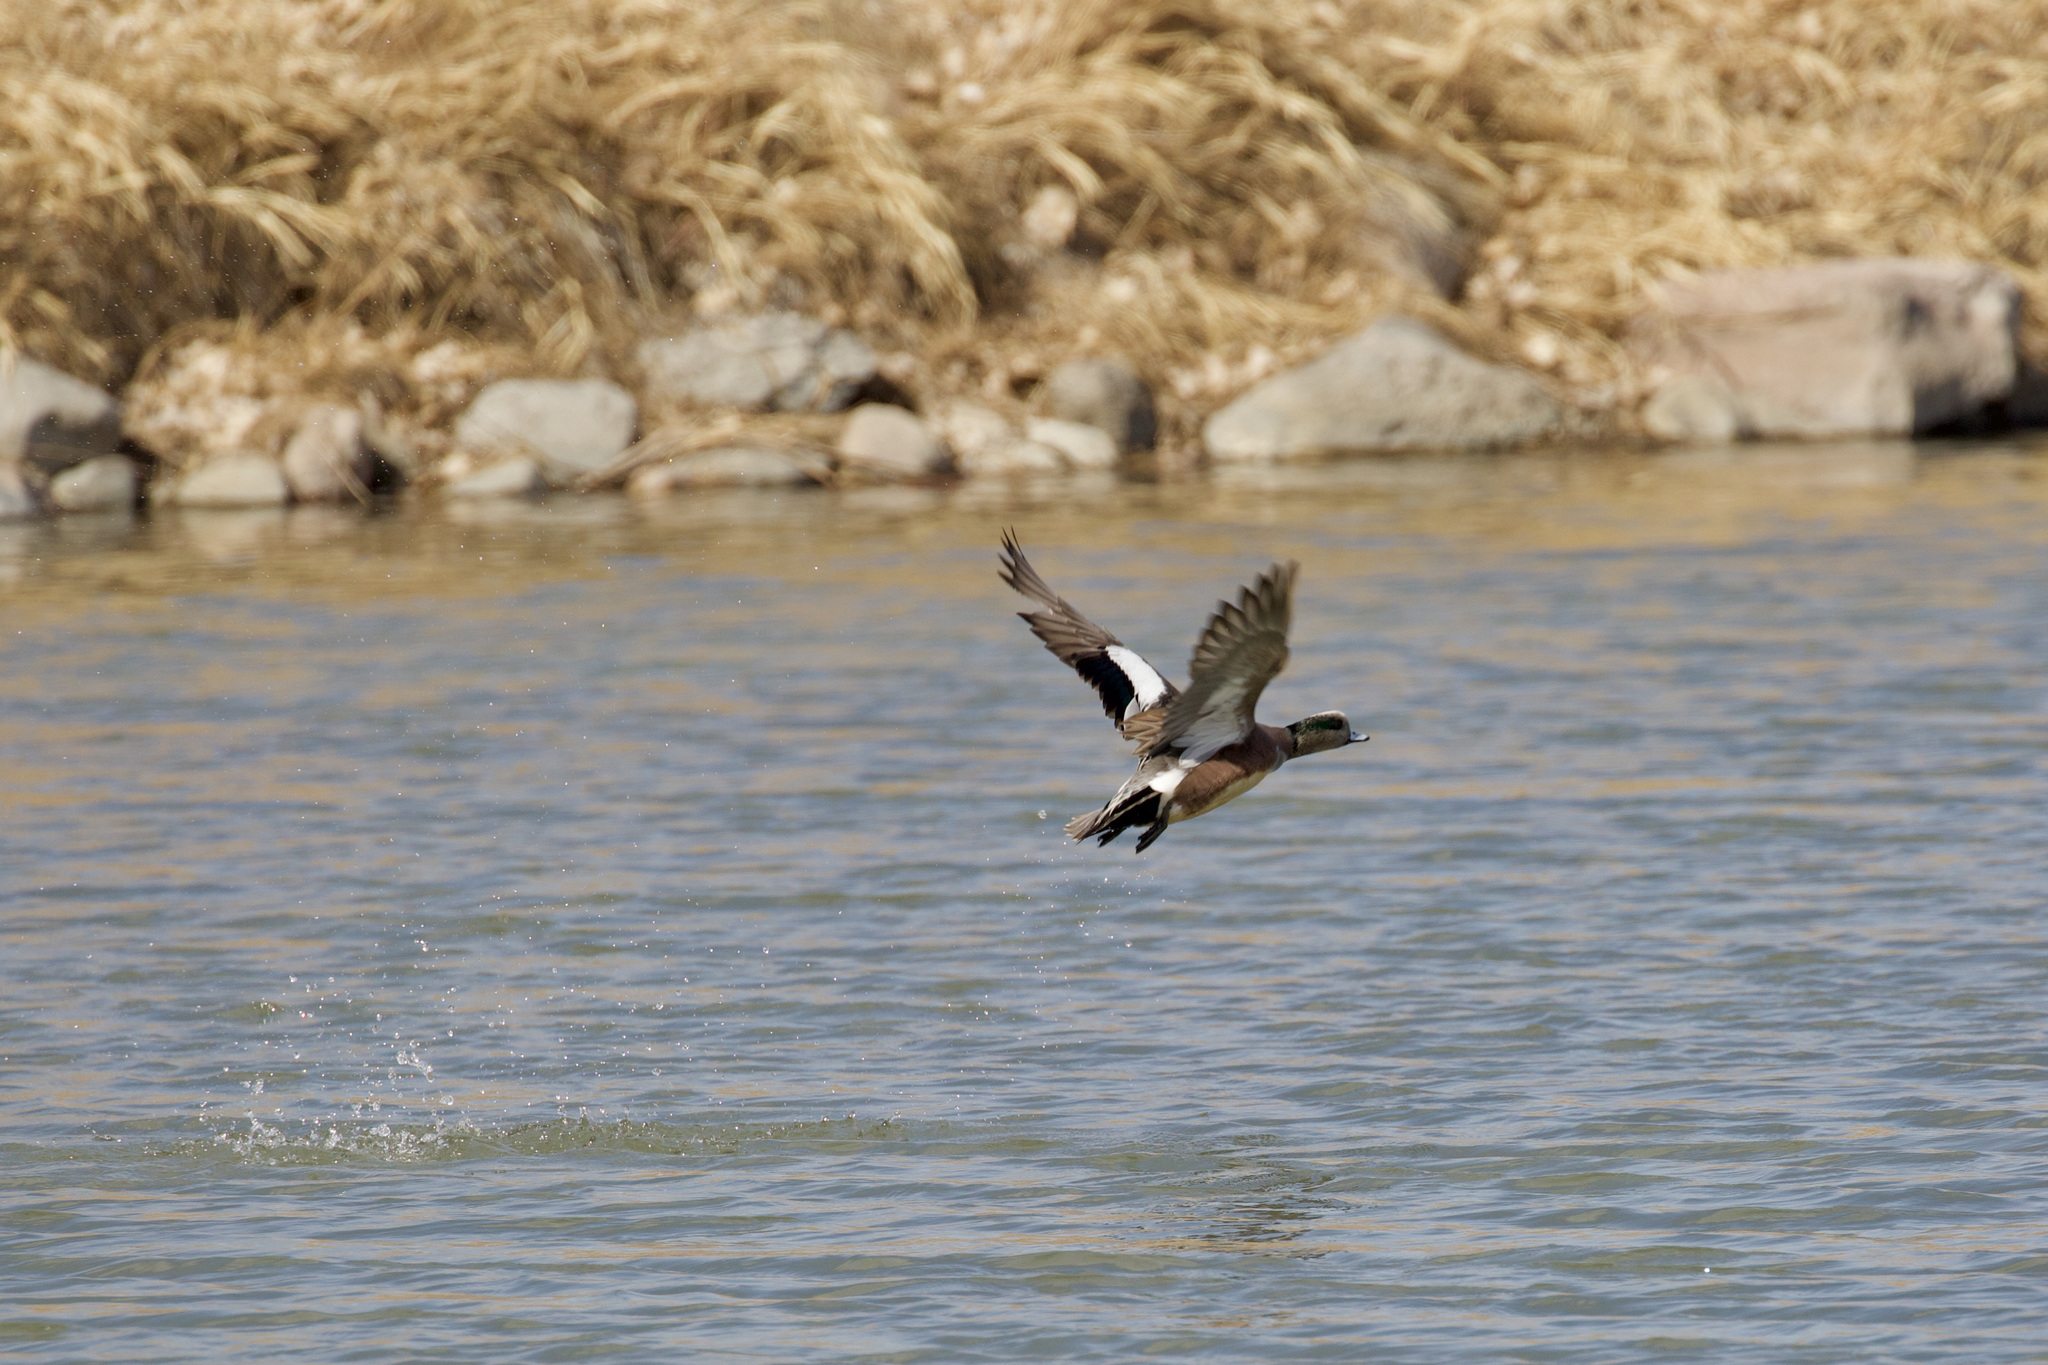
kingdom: Animalia
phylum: Chordata
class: Aves
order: Anseriformes
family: Anatidae
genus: Mareca
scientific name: Mareca americana
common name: American wigeon
